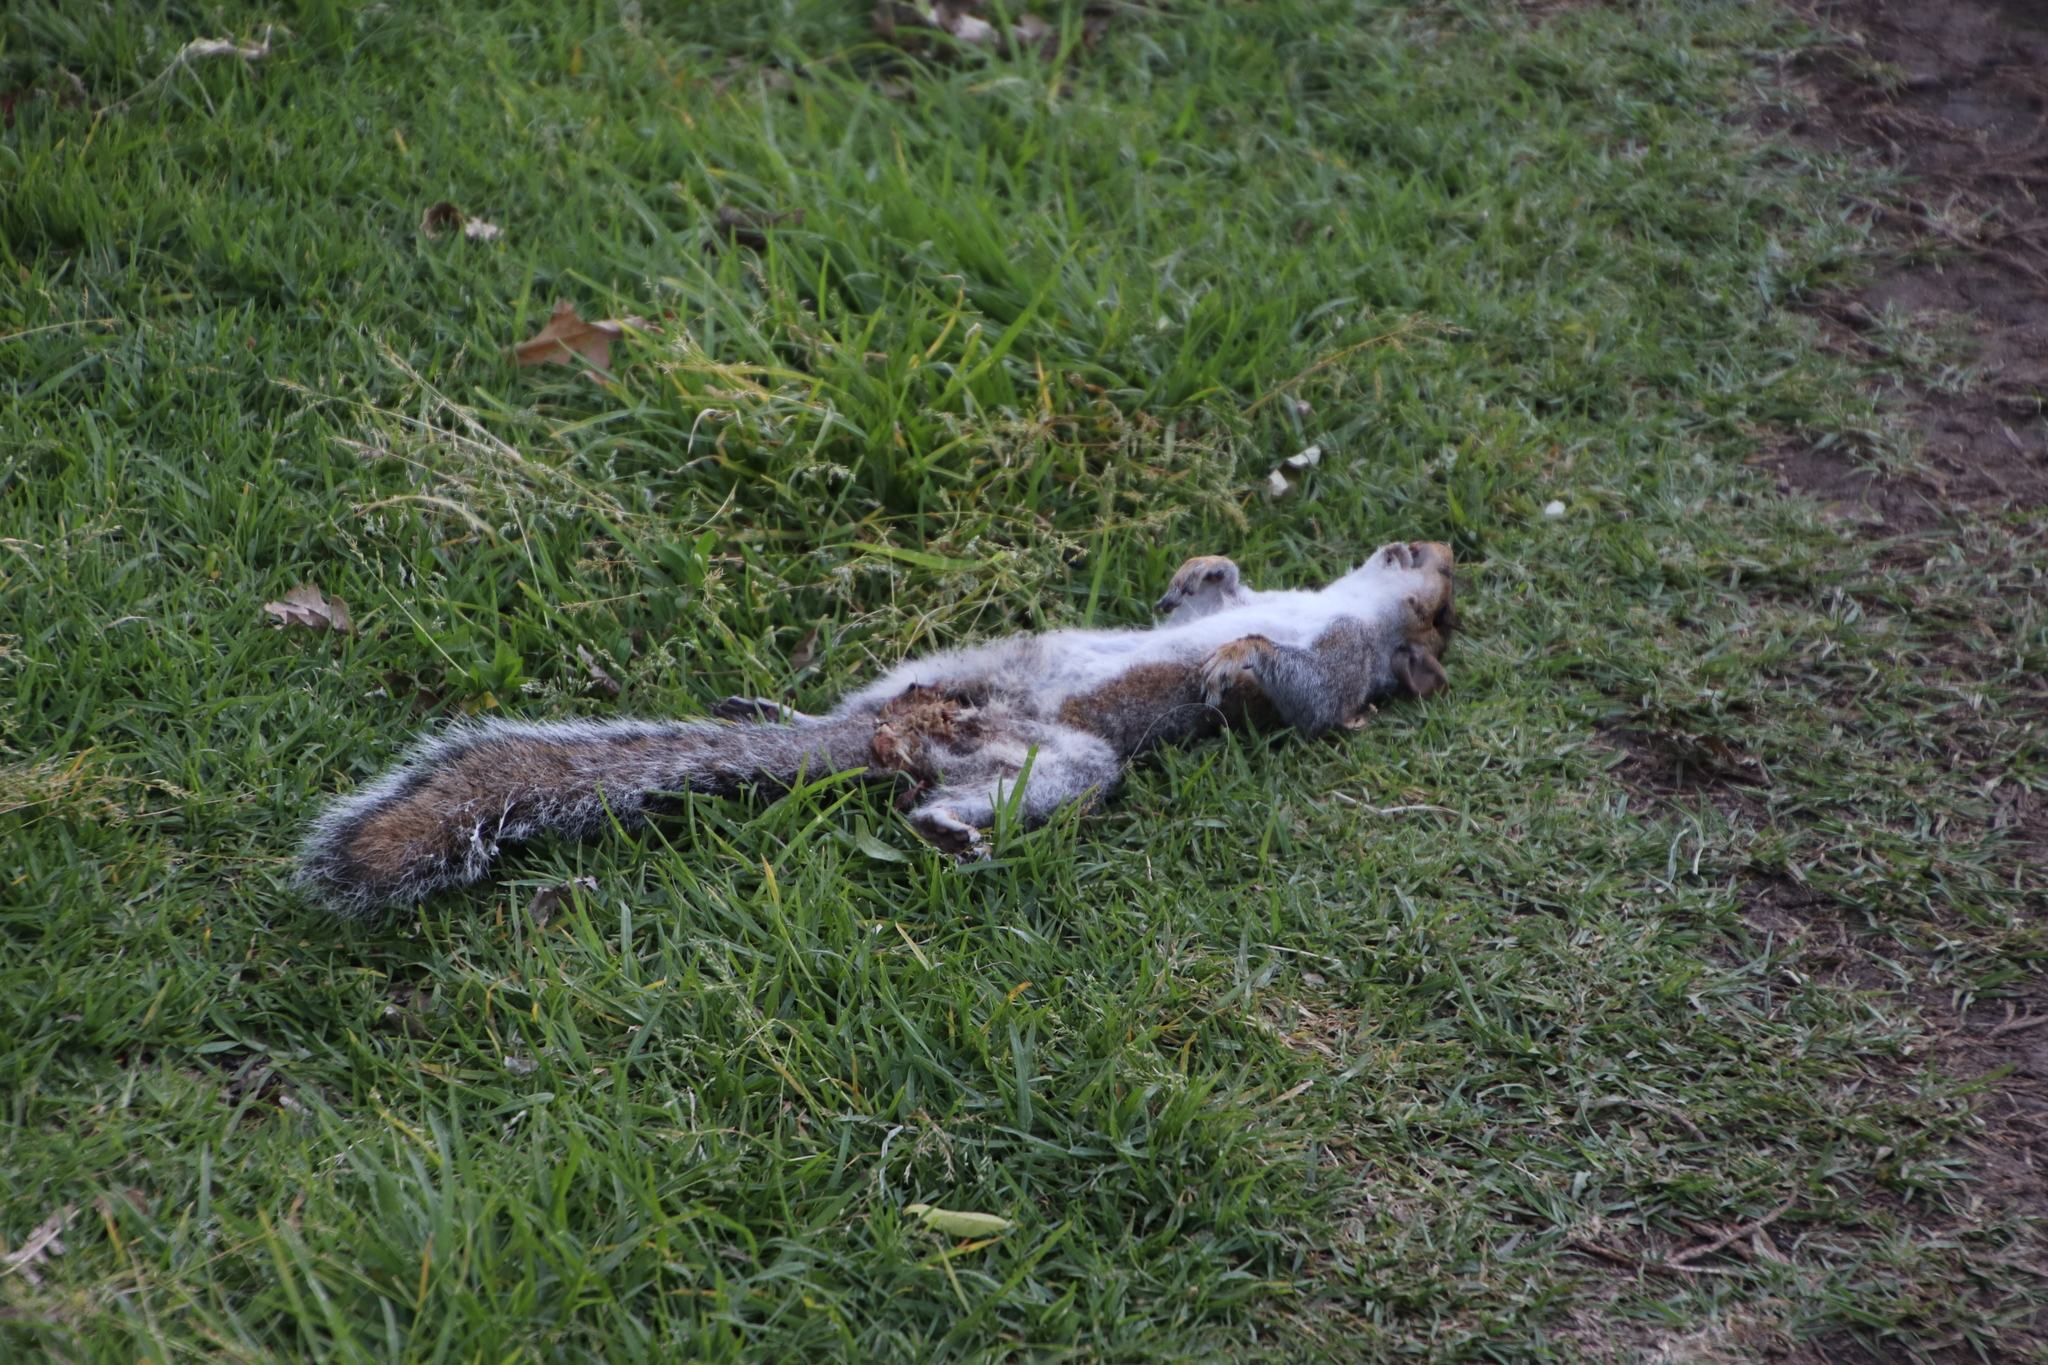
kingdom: Animalia
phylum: Chordata
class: Mammalia
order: Rodentia
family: Sciuridae
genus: Sciurus
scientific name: Sciurus carolinensis
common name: Eastern gray squirrel
